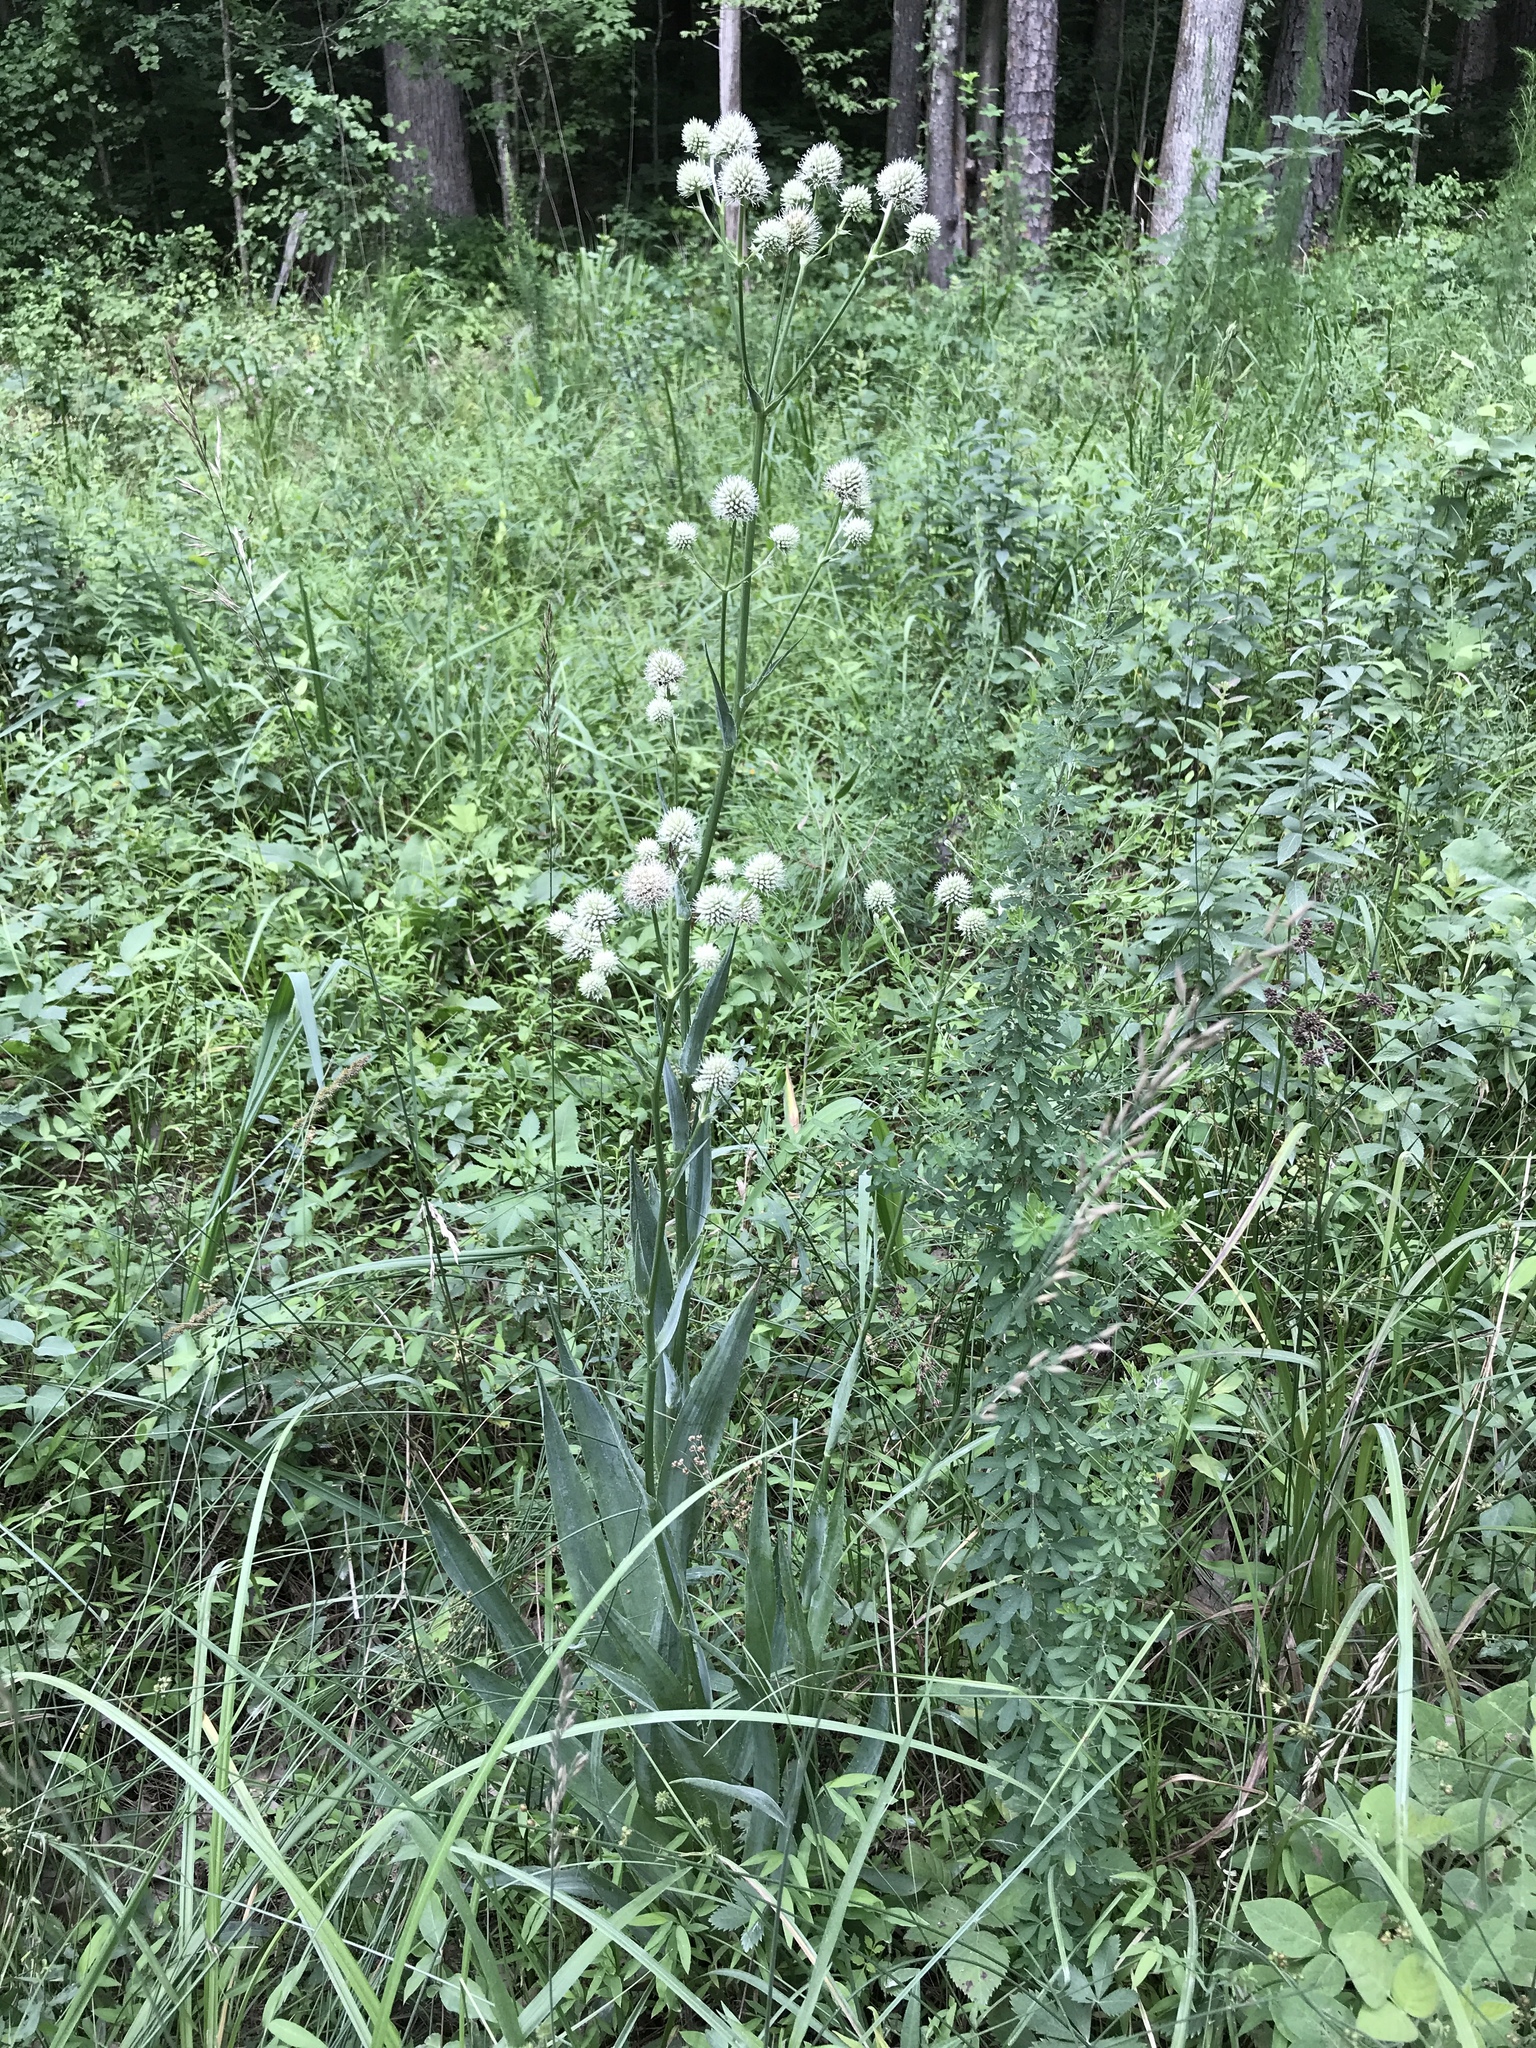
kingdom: Plantae
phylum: Tracheophyta
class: Magnoliopsida
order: Apiales
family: Apiaceae
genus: Eryngium
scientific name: Eryngium yuccifolium
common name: Button eryngo
